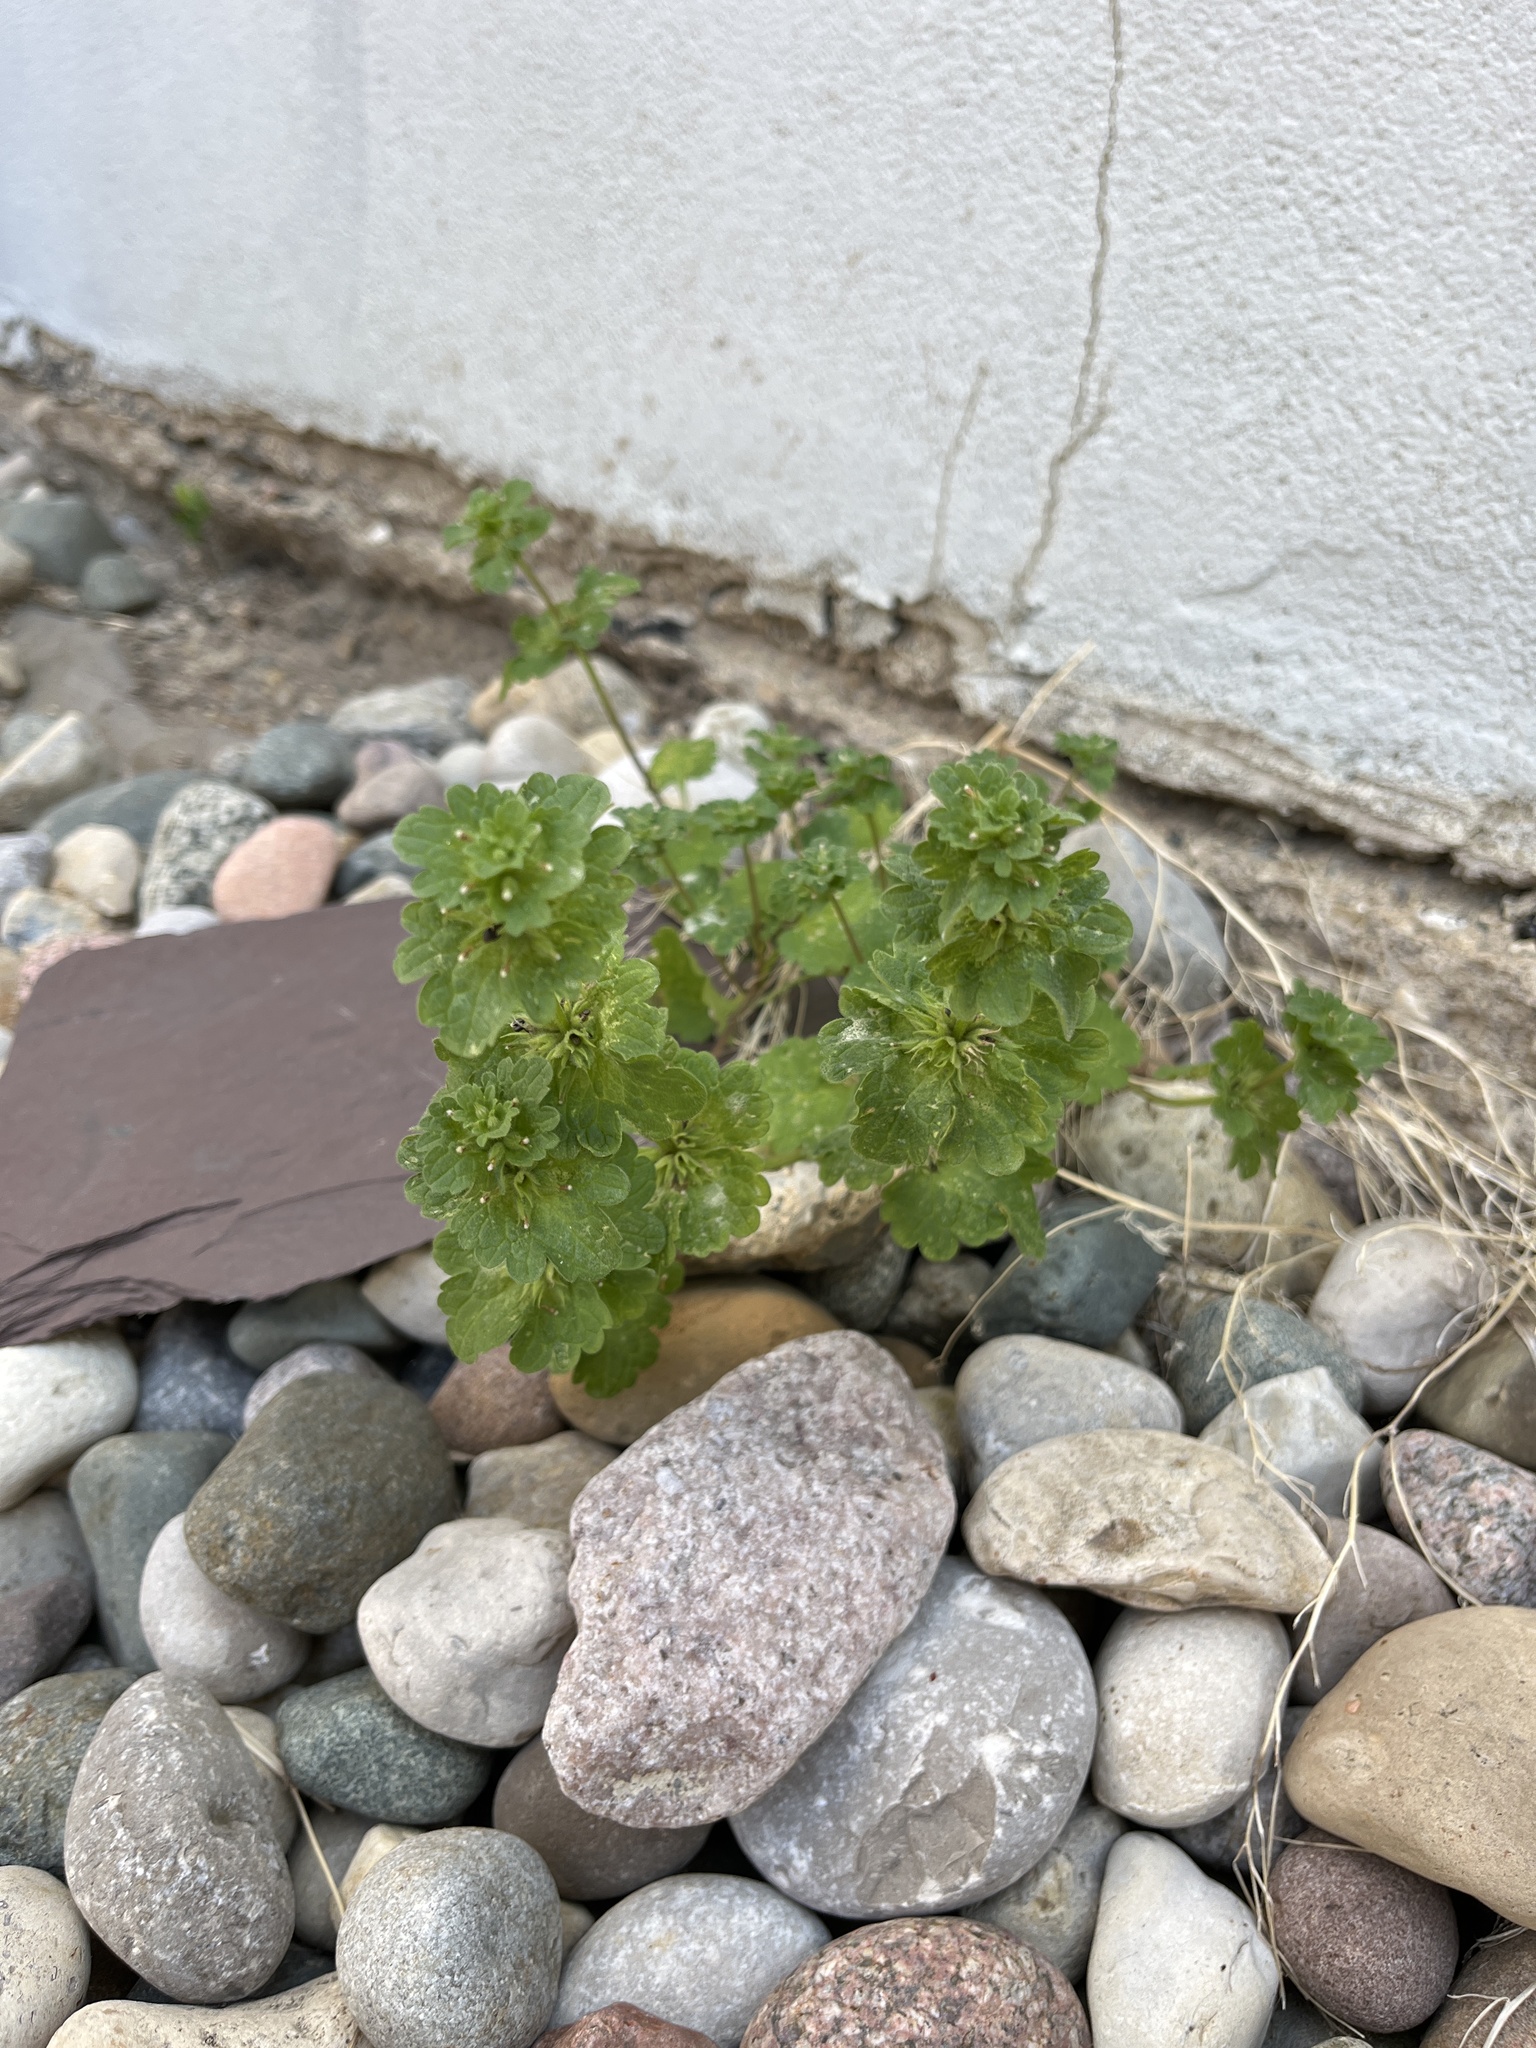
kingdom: Plantae
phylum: Tracheophyta
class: Magnoliopsida
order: Lamiales
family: Lamiaceae
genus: Lamium
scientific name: Lamium amplexicaule
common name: Henbit dead-nettle
